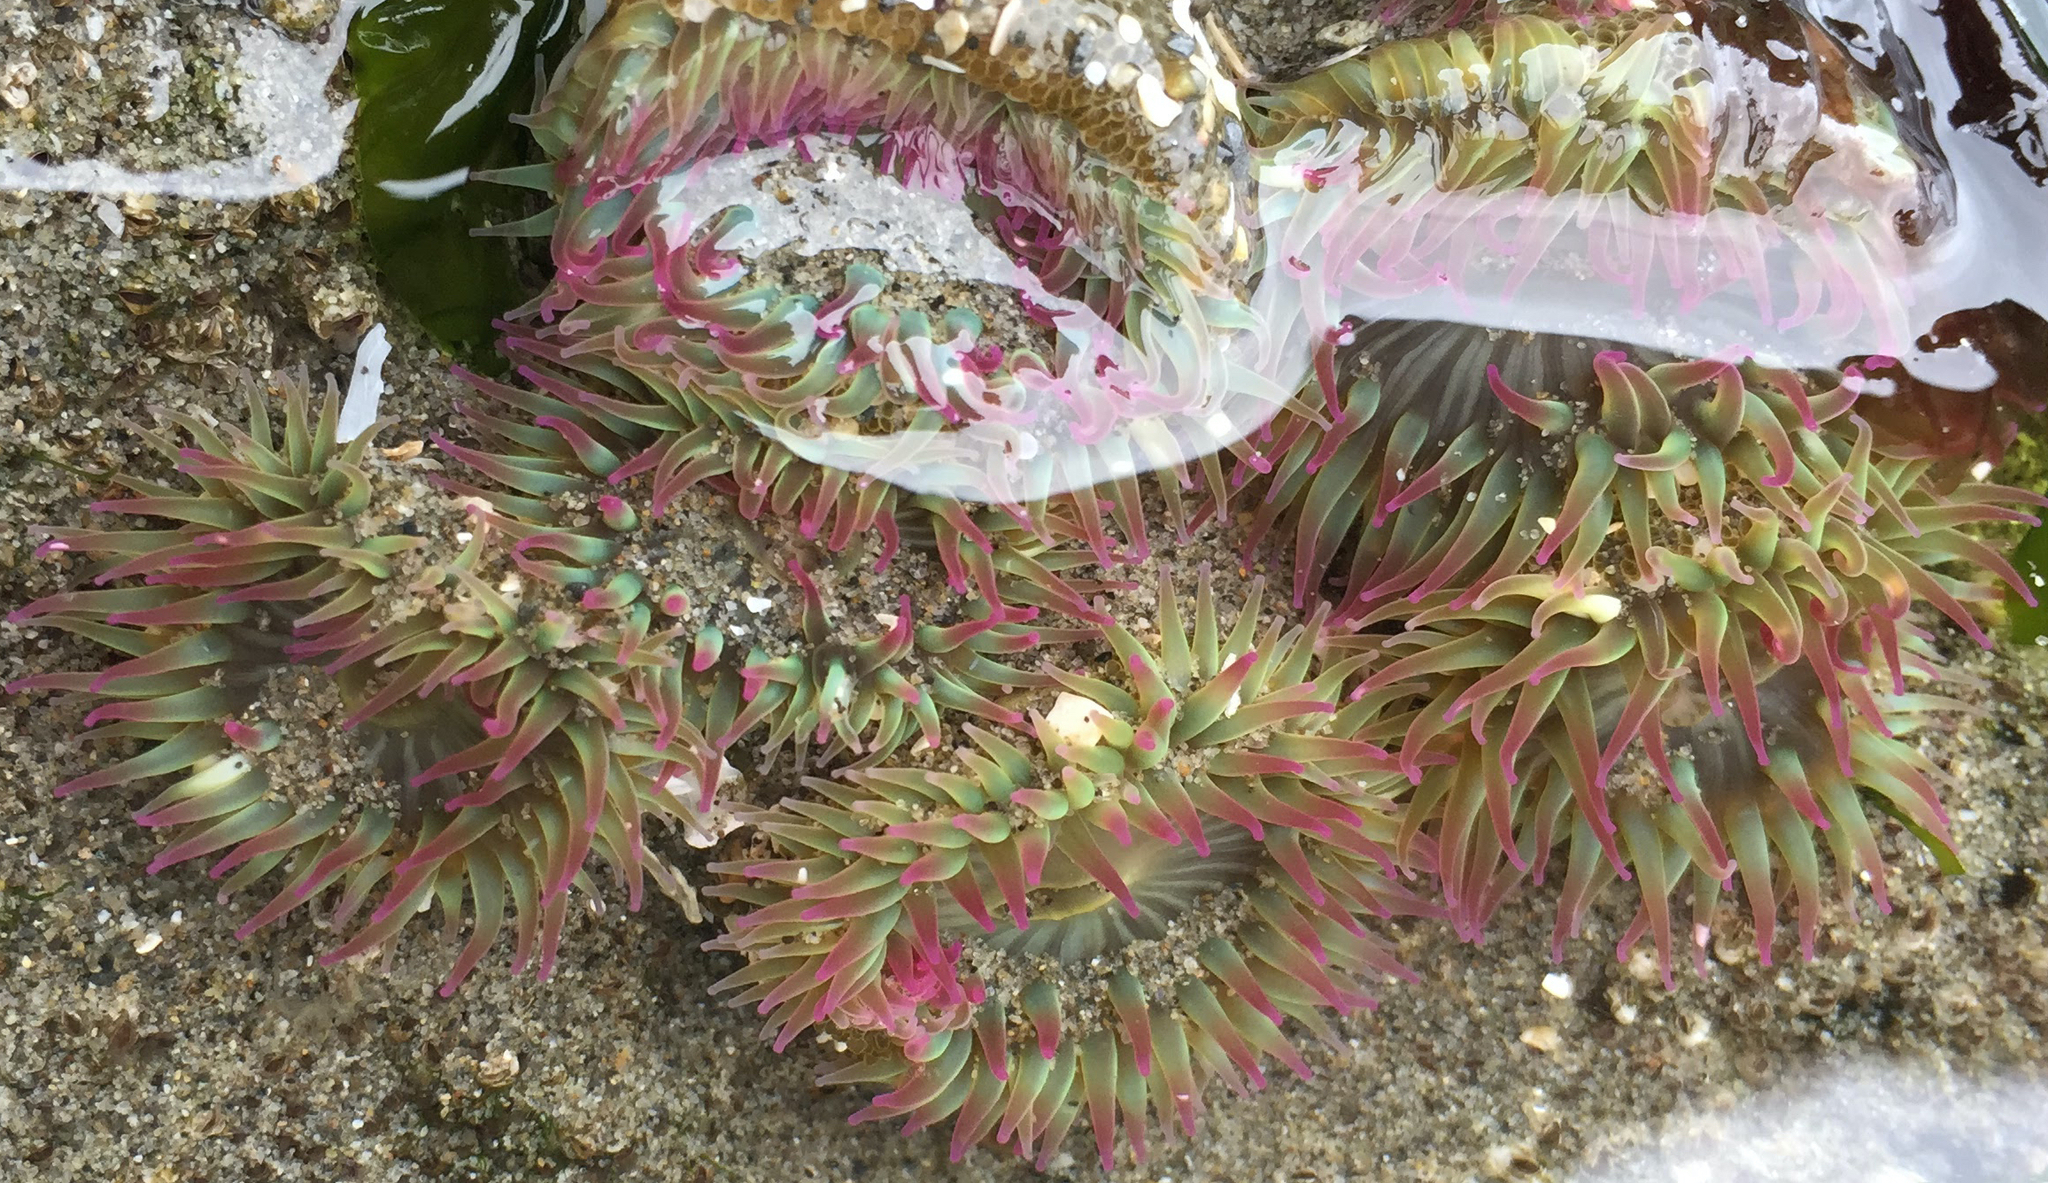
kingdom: Animalia
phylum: Cnidaria
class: Anthozoa
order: Actiniaria
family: Actiniidae
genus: Anthopleura
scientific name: Anthopleura elegantissima
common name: Clonal anemone
